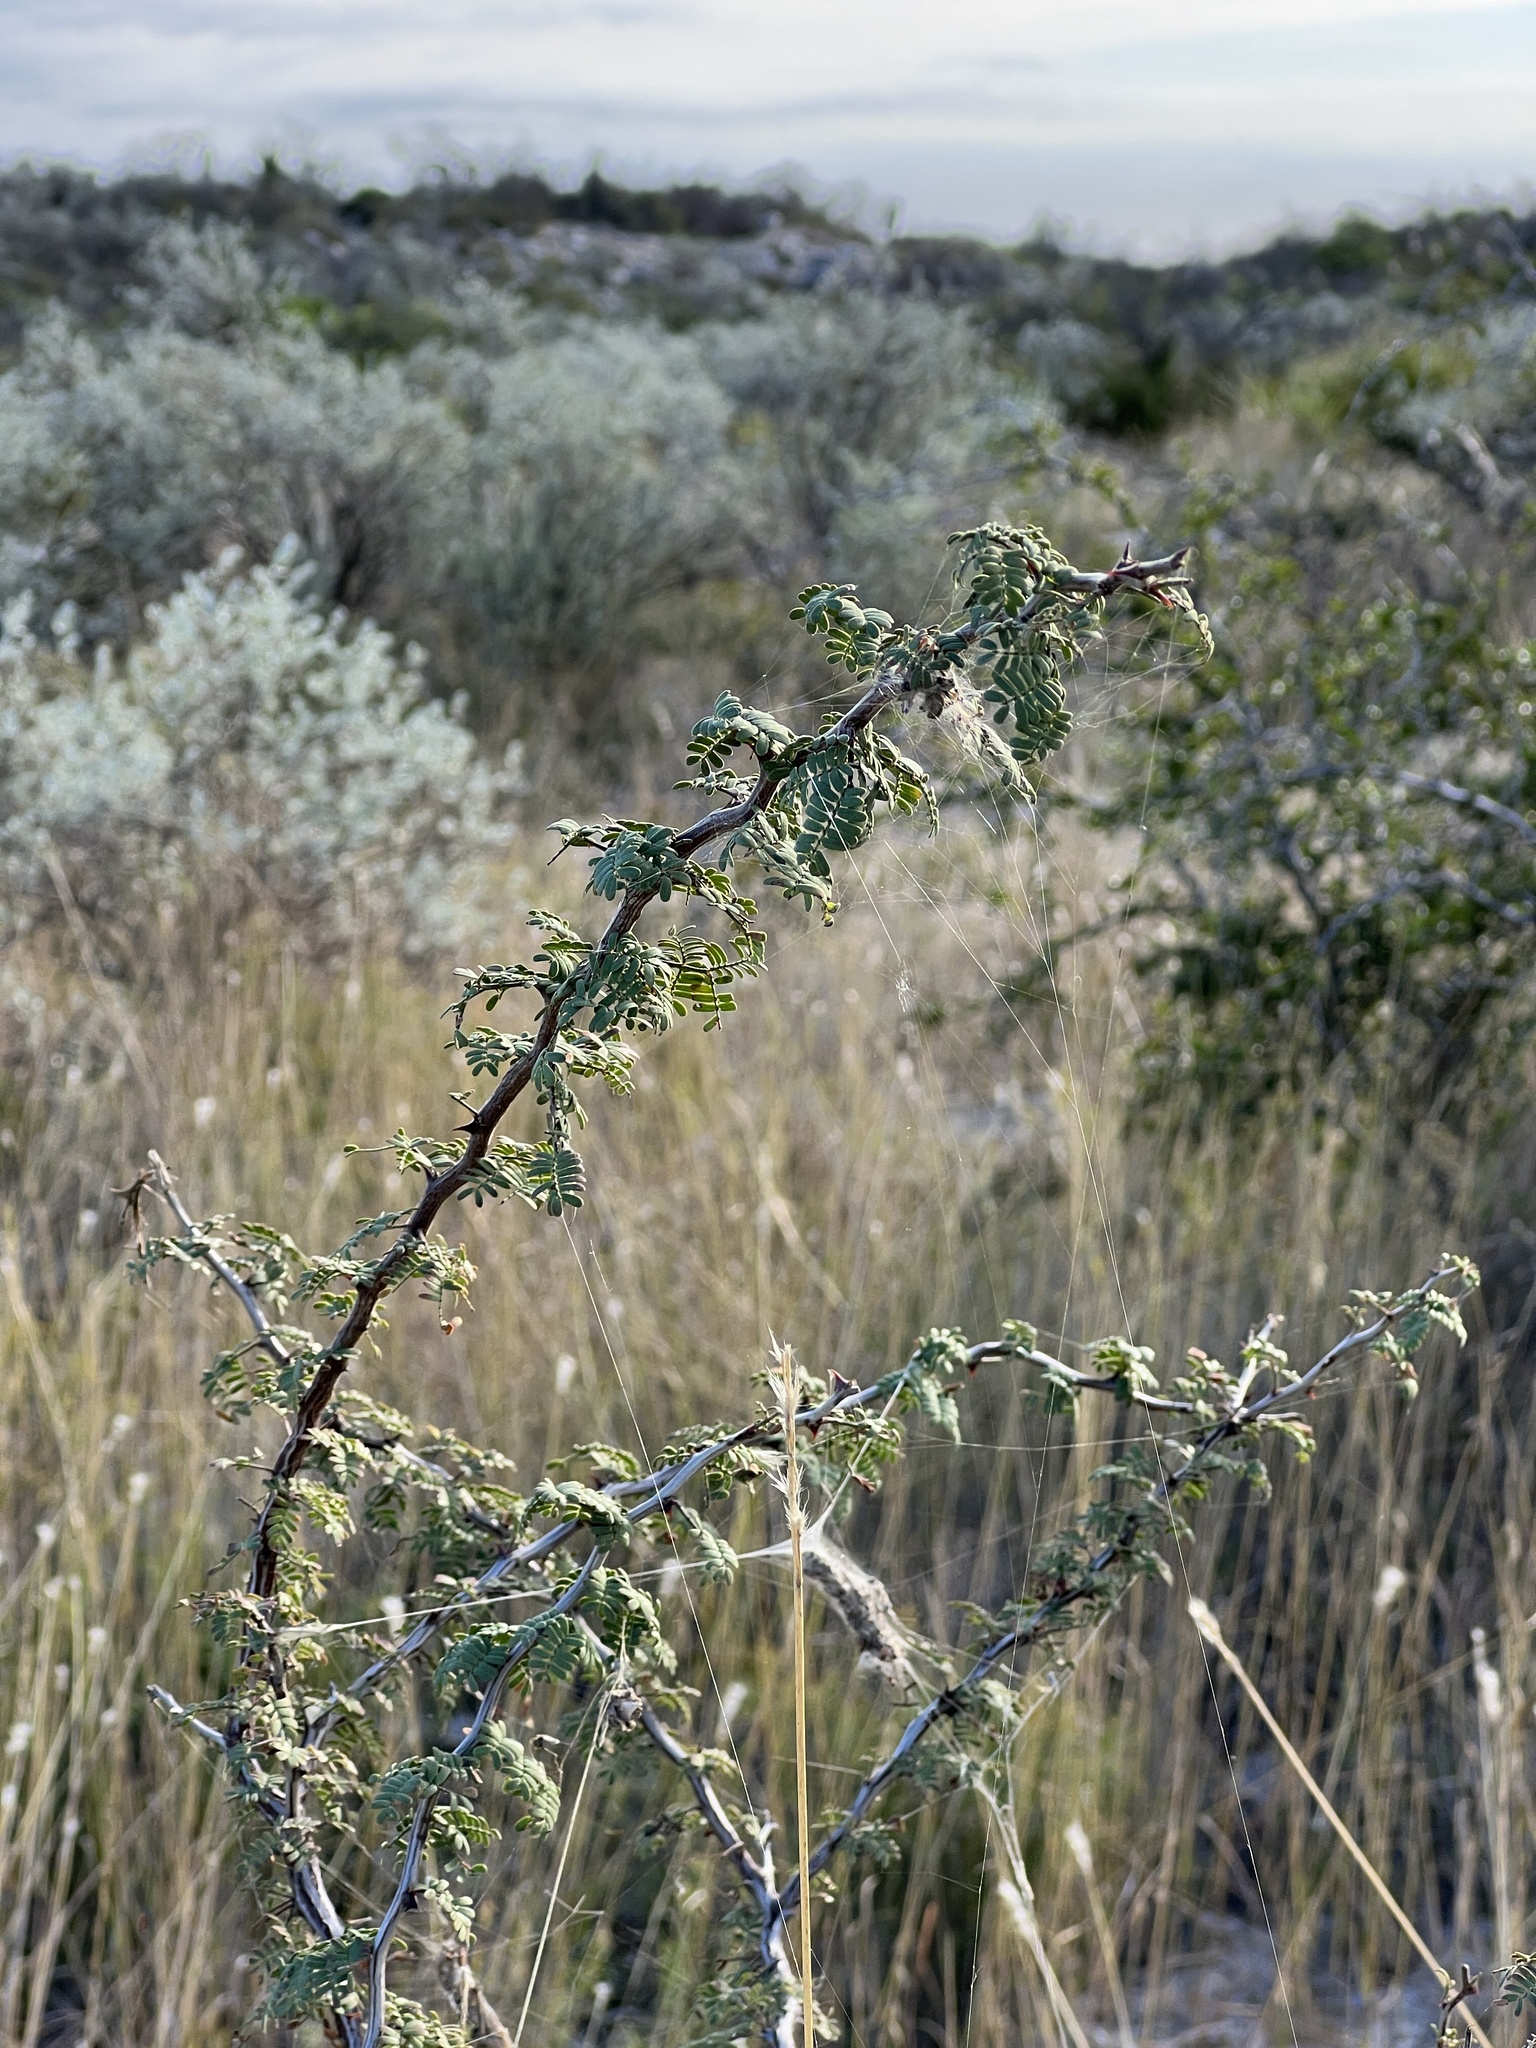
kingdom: Plantae
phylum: Tracheophyta
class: Magnoliopsida
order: Fabales
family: Fabaceae
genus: Senegalia
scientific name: Senegalia greggii
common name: Texas-mimosa
